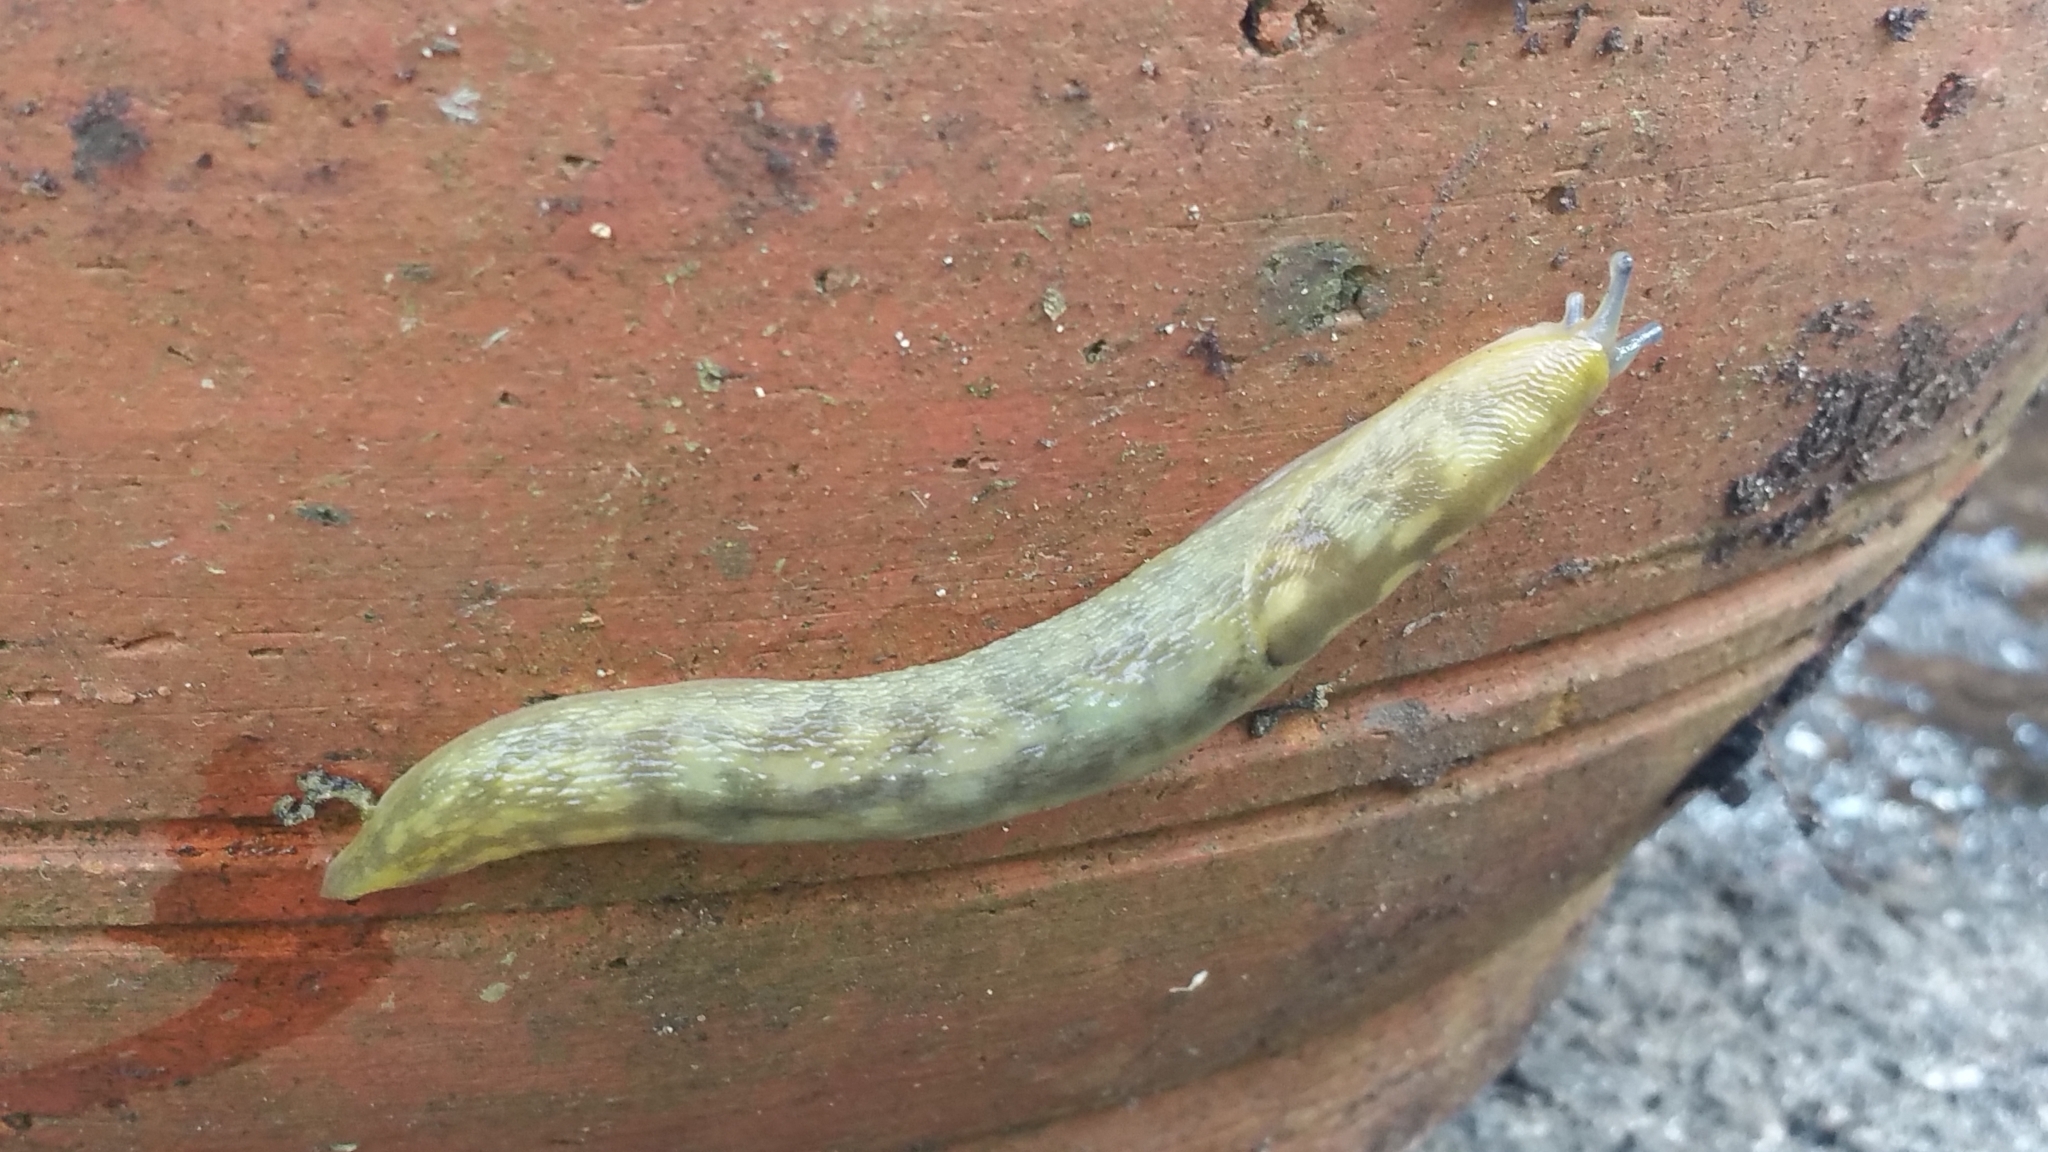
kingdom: Animalia
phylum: Mollusca
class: Gastropoda
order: Stylommatophora
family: Limacidae
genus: Limacus
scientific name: Limacus maculatus
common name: Irish yellow slug
